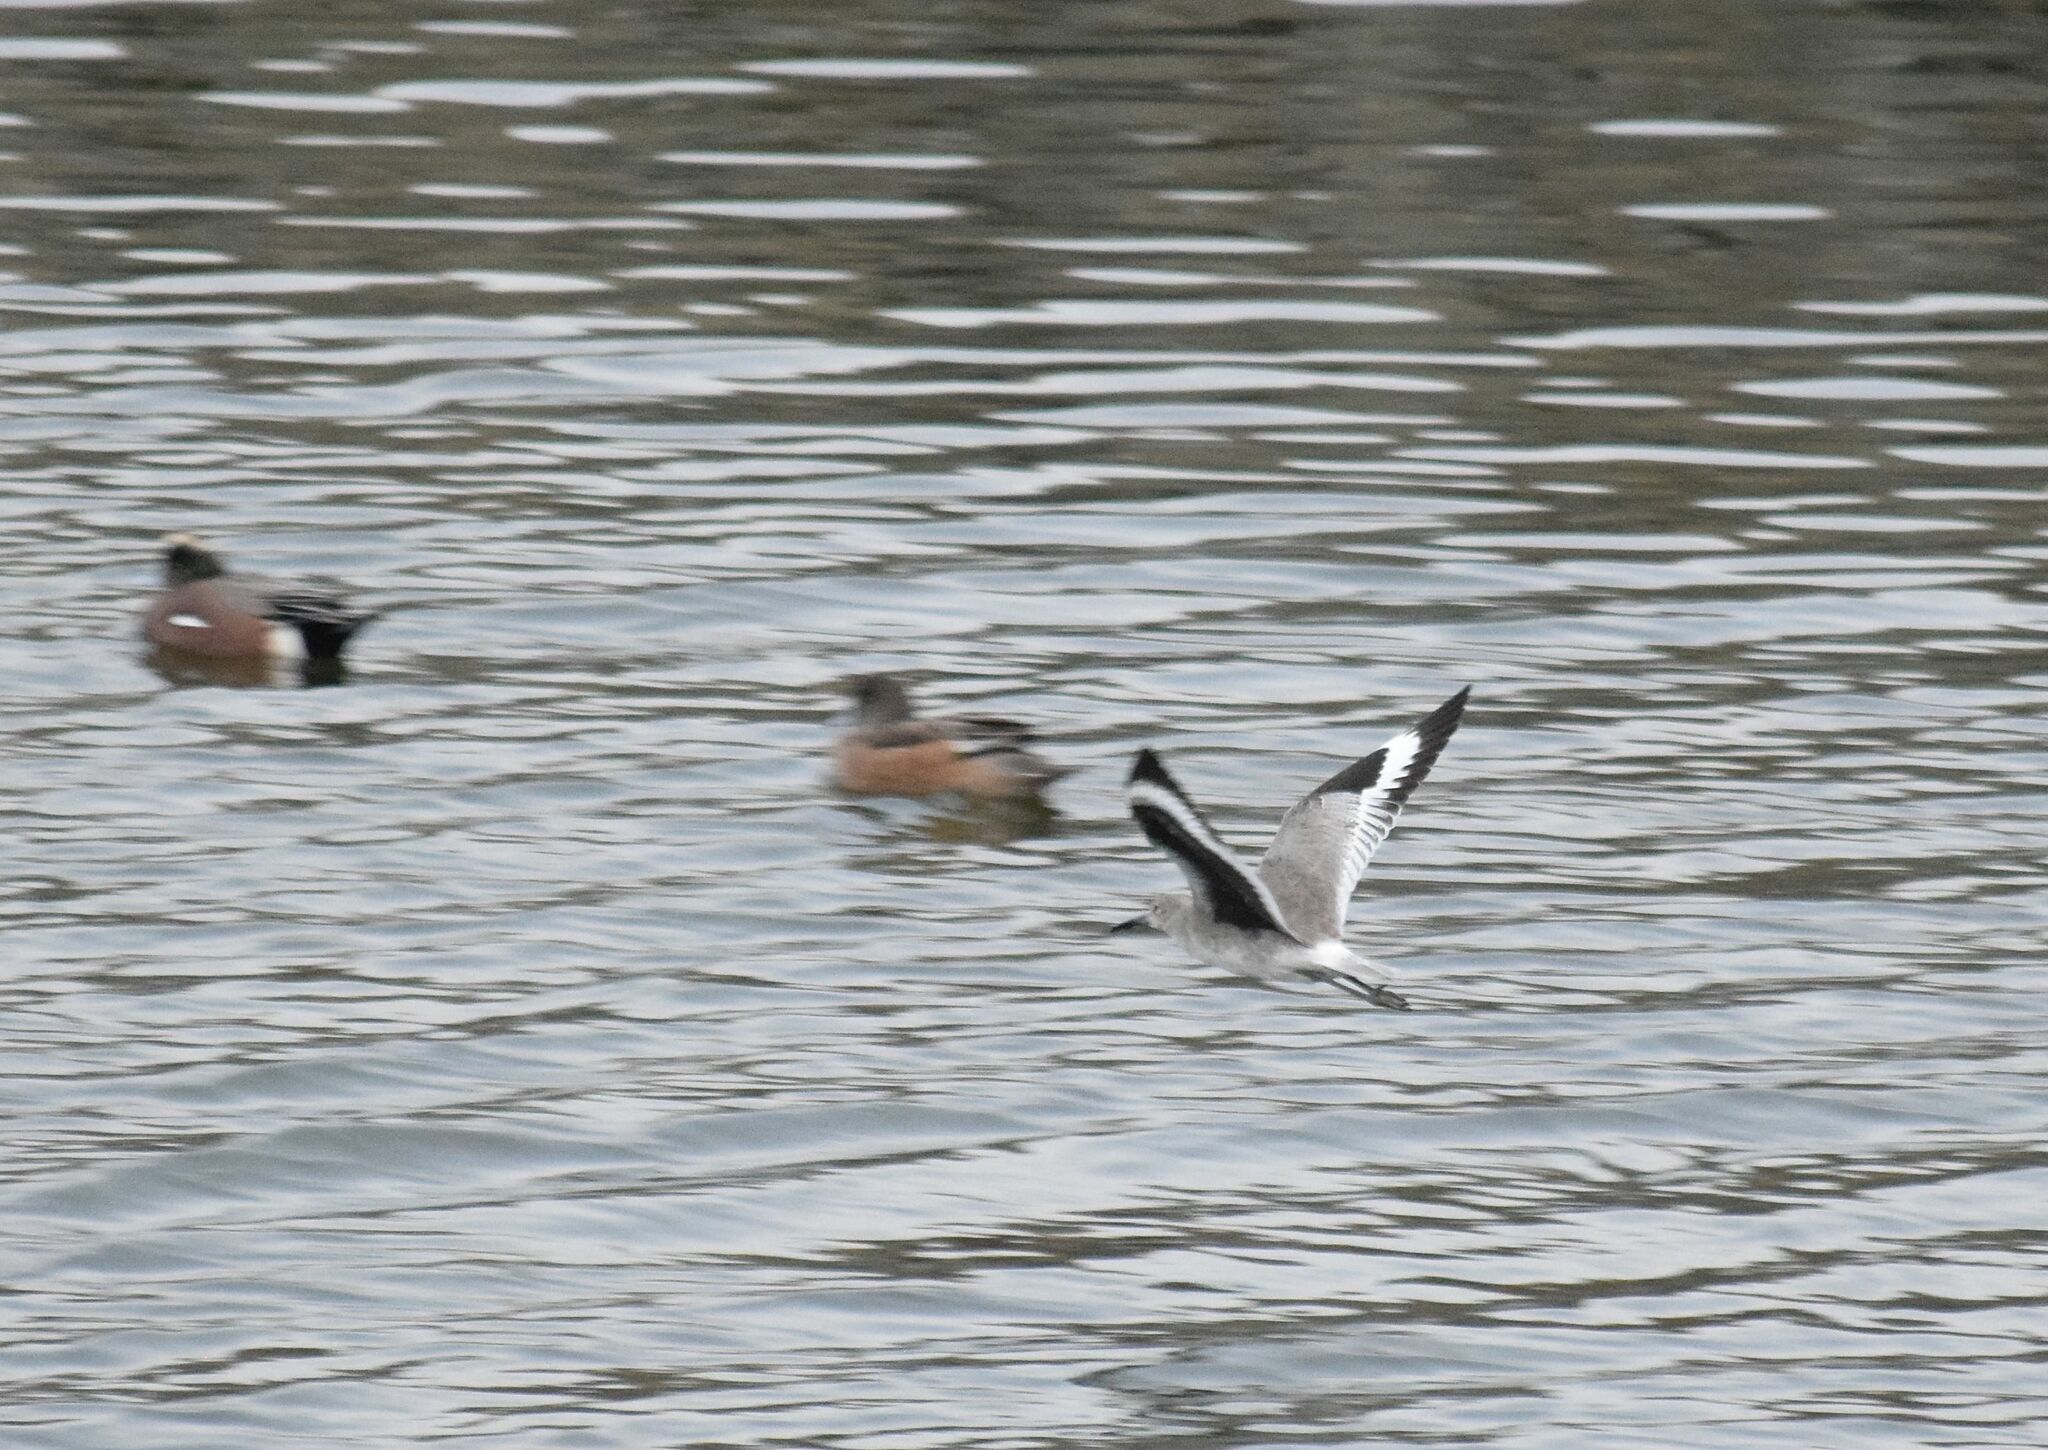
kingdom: Animalia
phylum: Chordata
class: Aves
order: Charadriiformes
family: Scolopacidae
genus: Tringa
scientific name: Tringa semipalmata
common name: Willet
